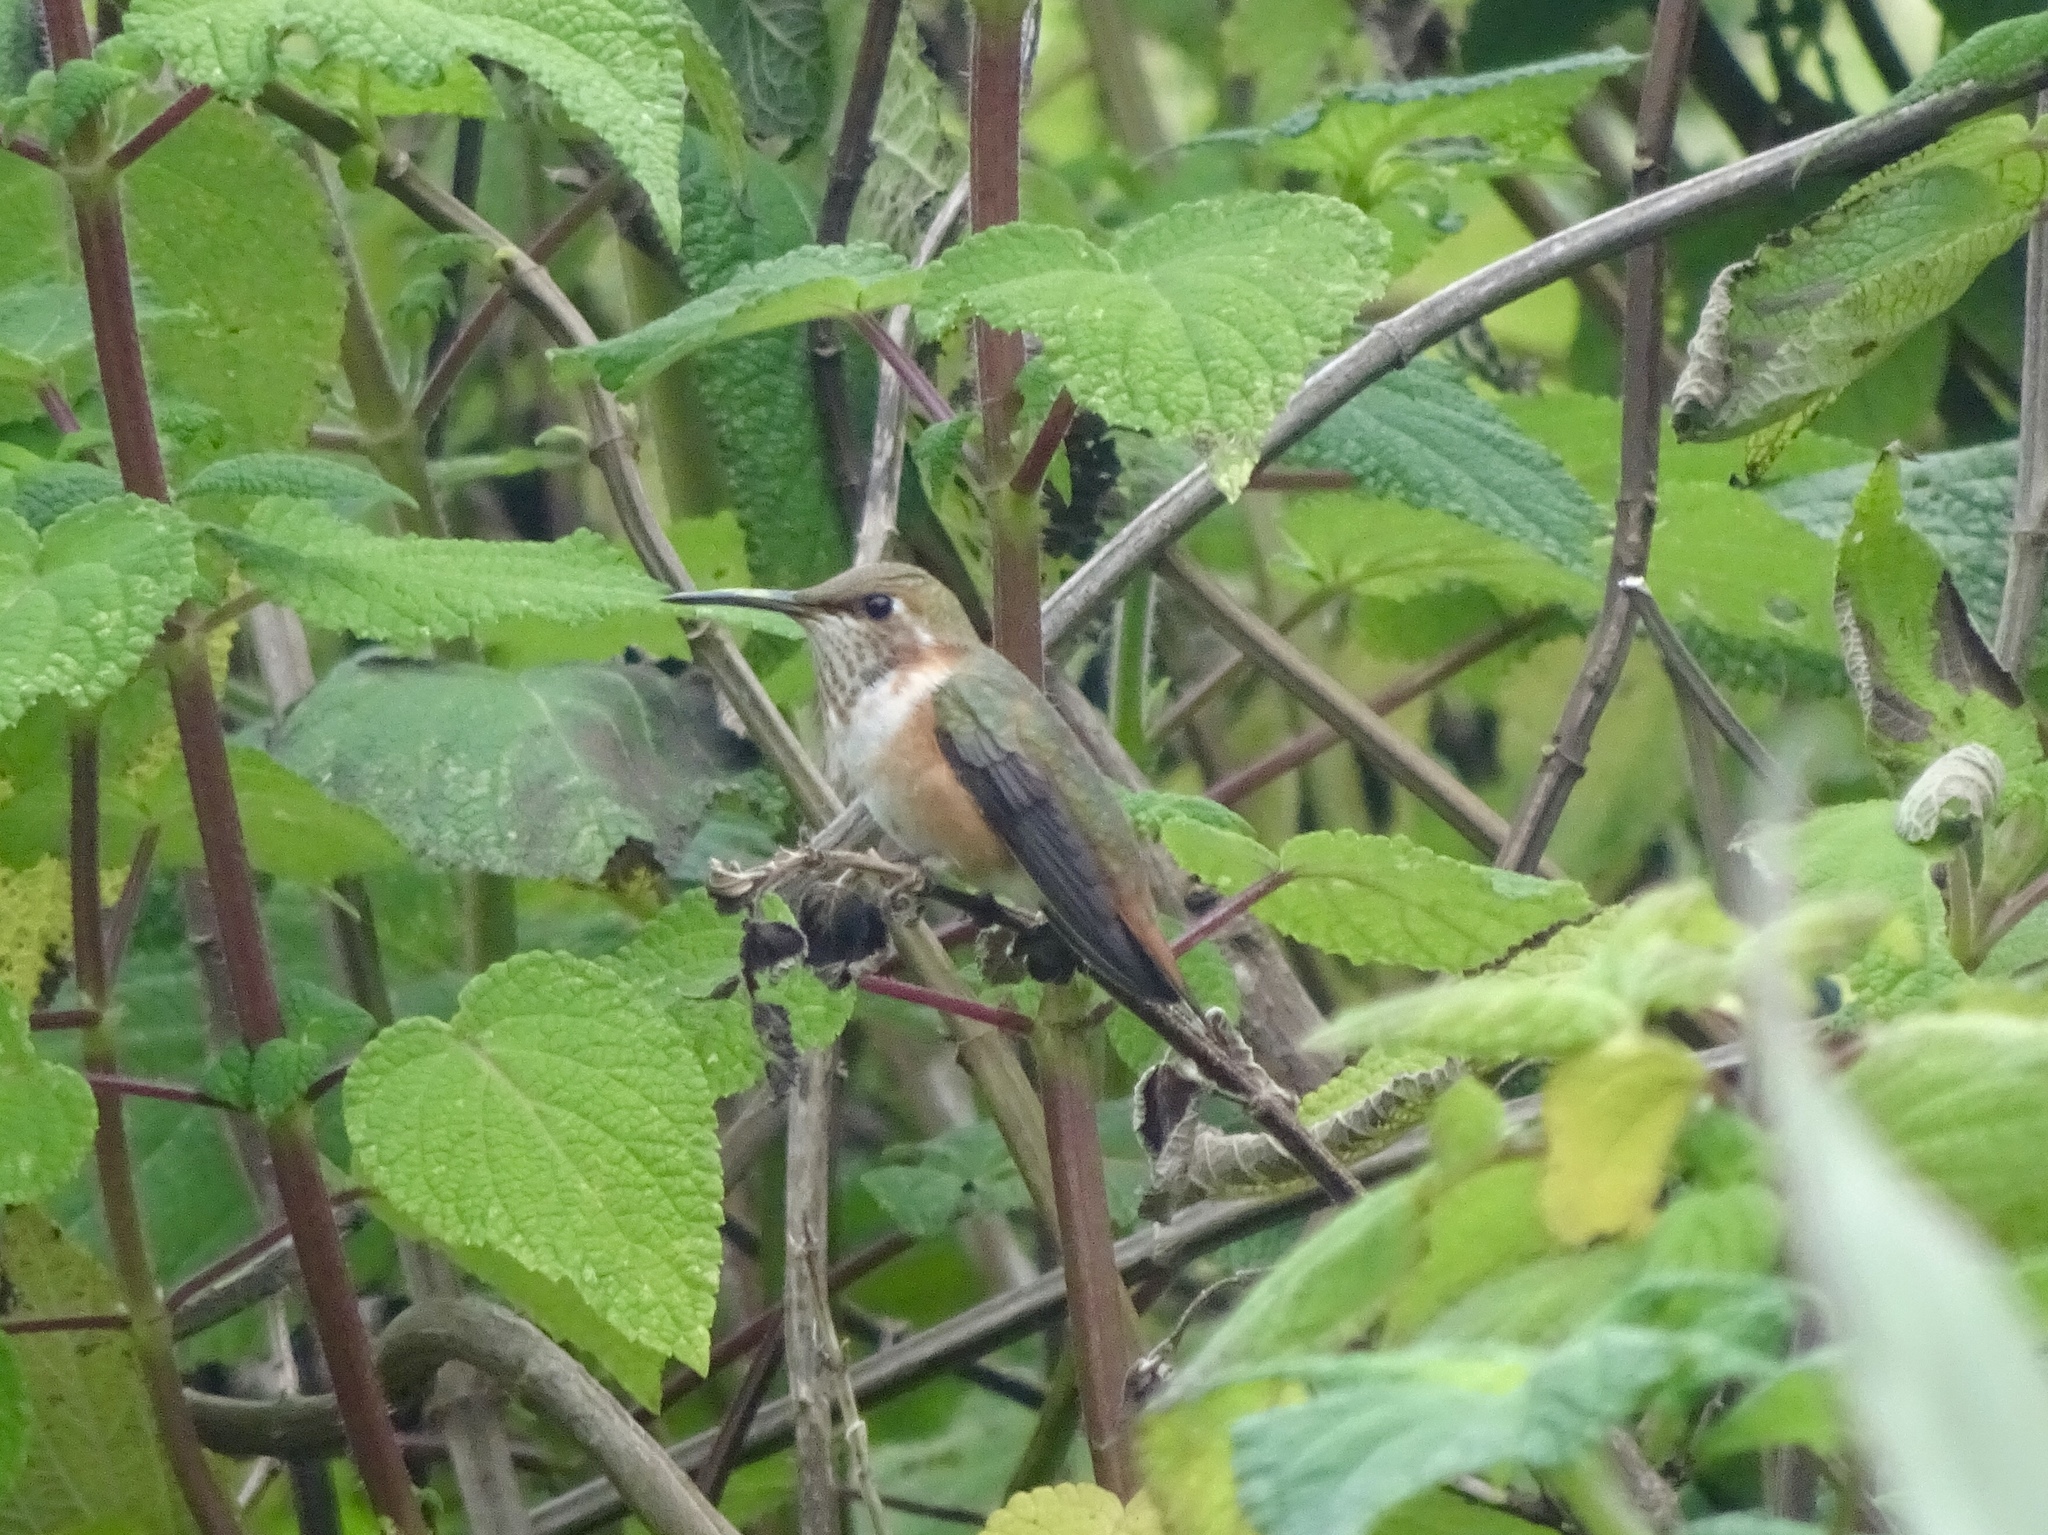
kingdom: Animalia
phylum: Chordata
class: Aves
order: Apodiformes
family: Trochilidae
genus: Selasphorus
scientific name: Selasphorus
